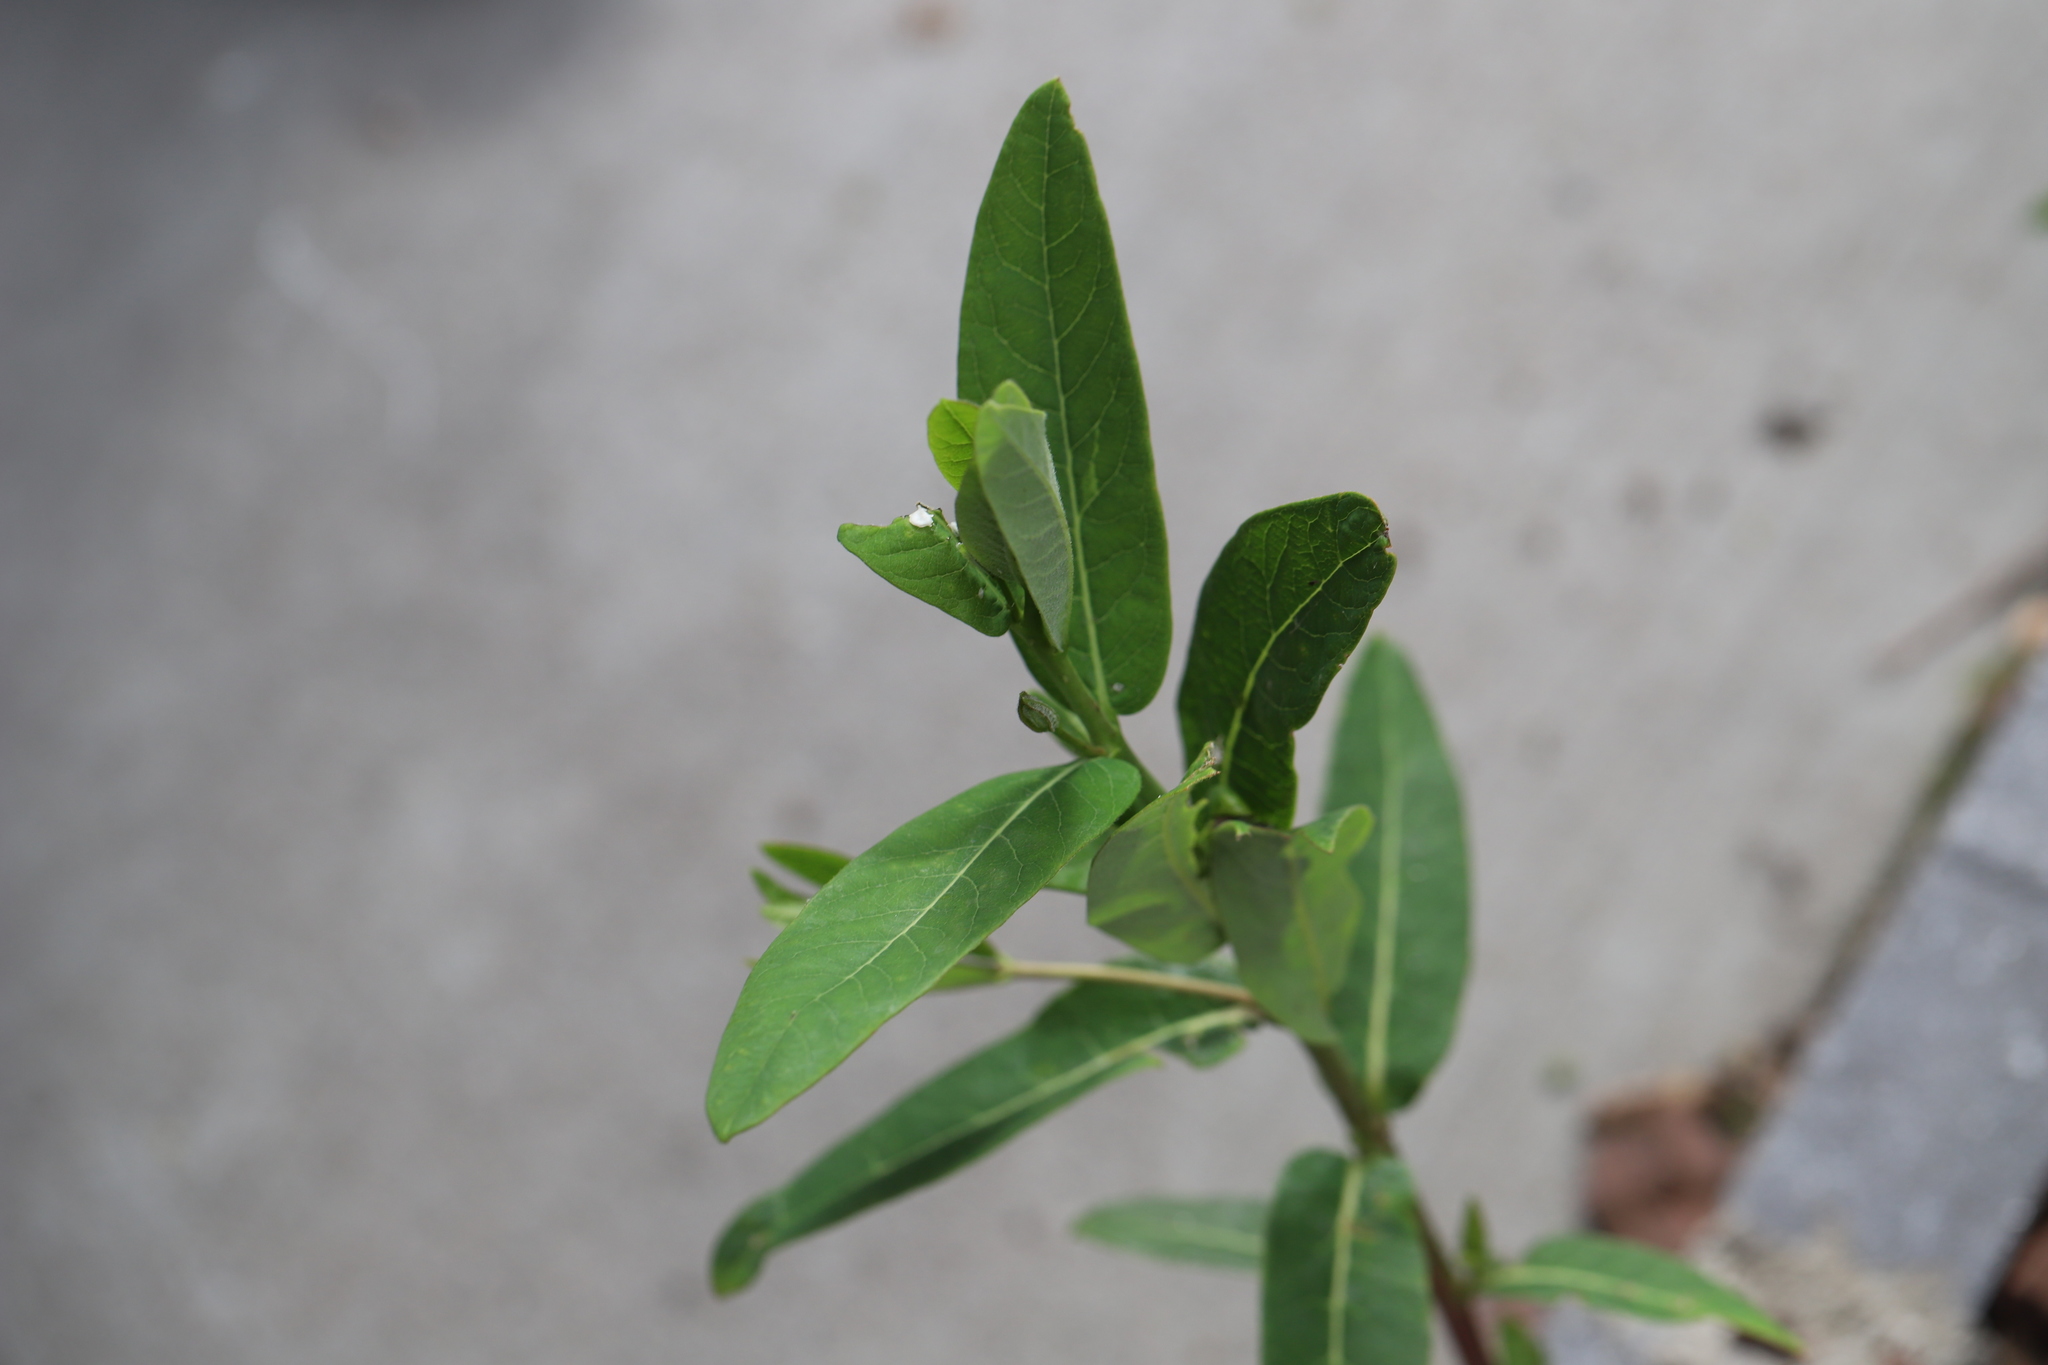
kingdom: Plantae
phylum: Tracheophyta
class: Magnoliopsida
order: Gentianales
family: Apocynaceae
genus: Apocynum
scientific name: Apocynum cannabinum
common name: Hemp dogbane
